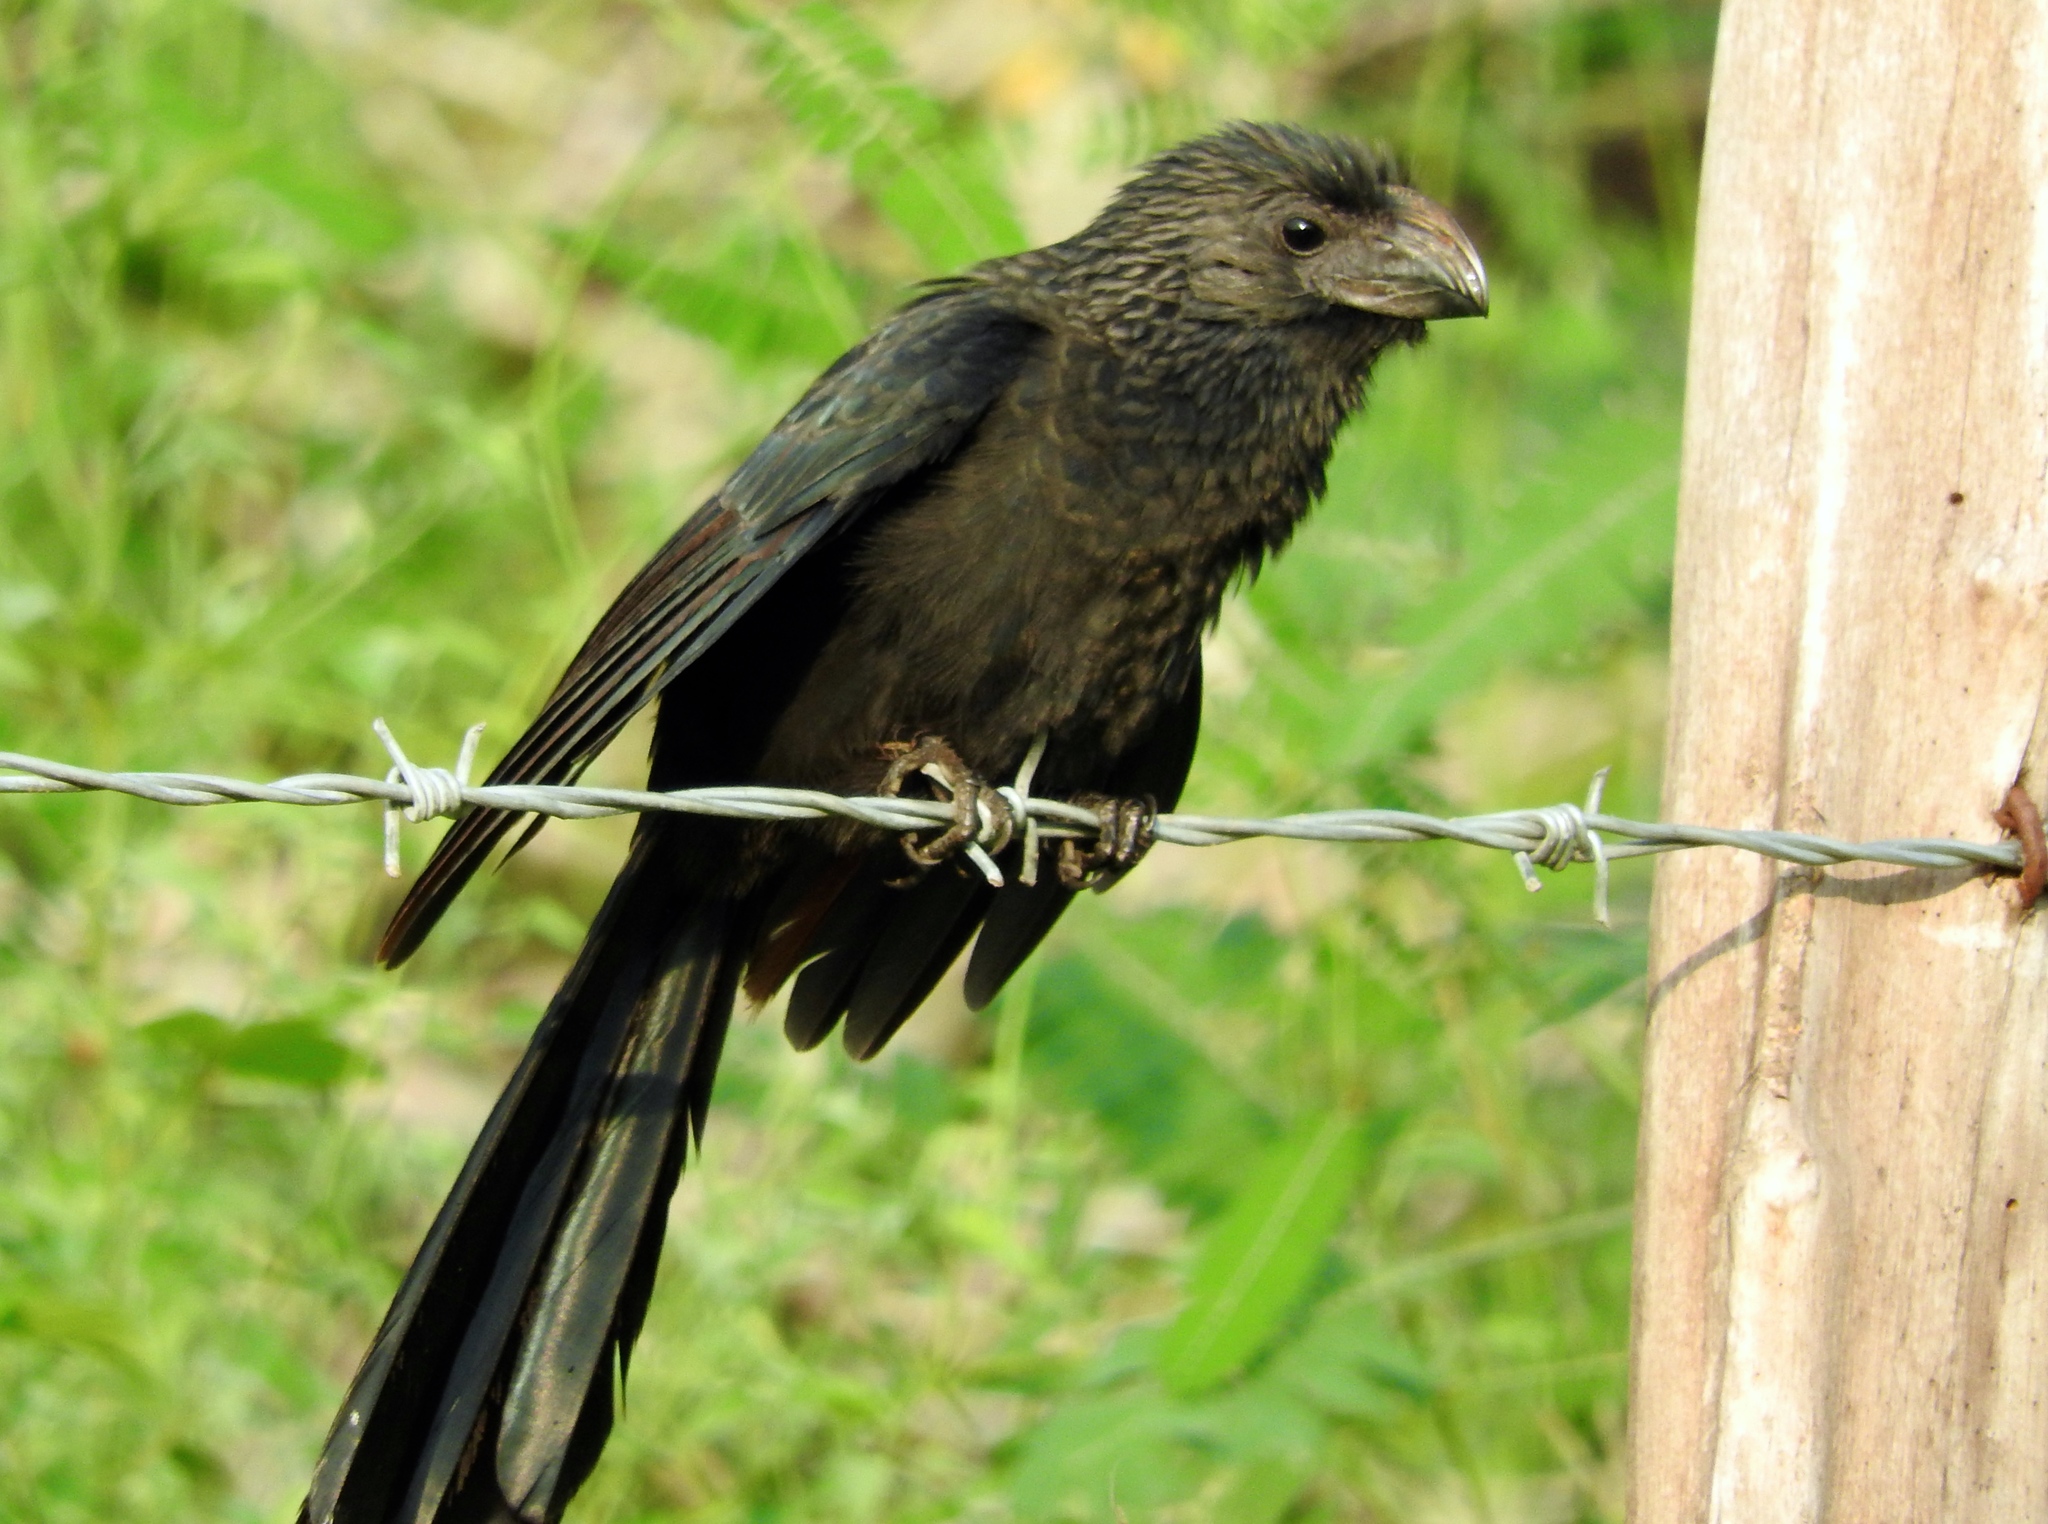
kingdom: Animalia
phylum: Chordata
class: Aves
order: Cuculiformes
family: Cuculidae
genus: Crotophaga
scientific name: Crotophaga sulcirostris
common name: Groove-billed ani
